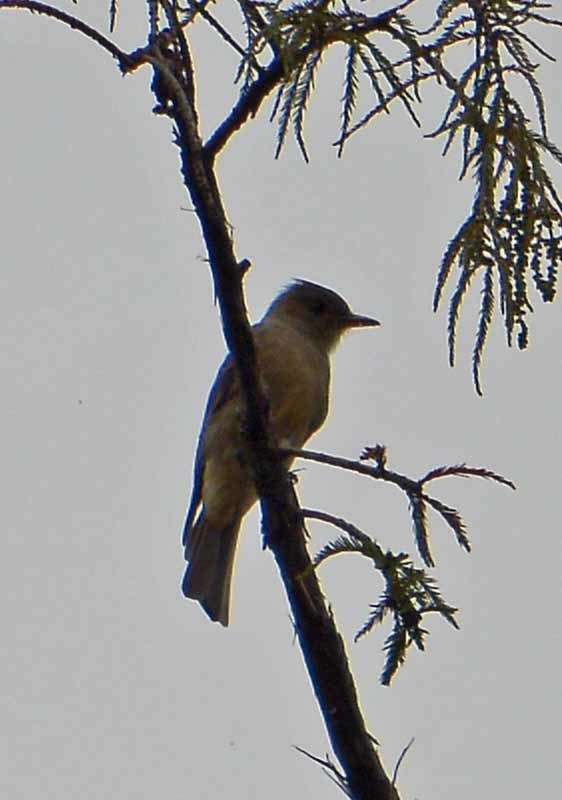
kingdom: Animalia
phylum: Chordata
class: Aves
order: Passeriformes
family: Tyrannidae
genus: Contopus
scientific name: Contopus pertinax
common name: Greater pewee
